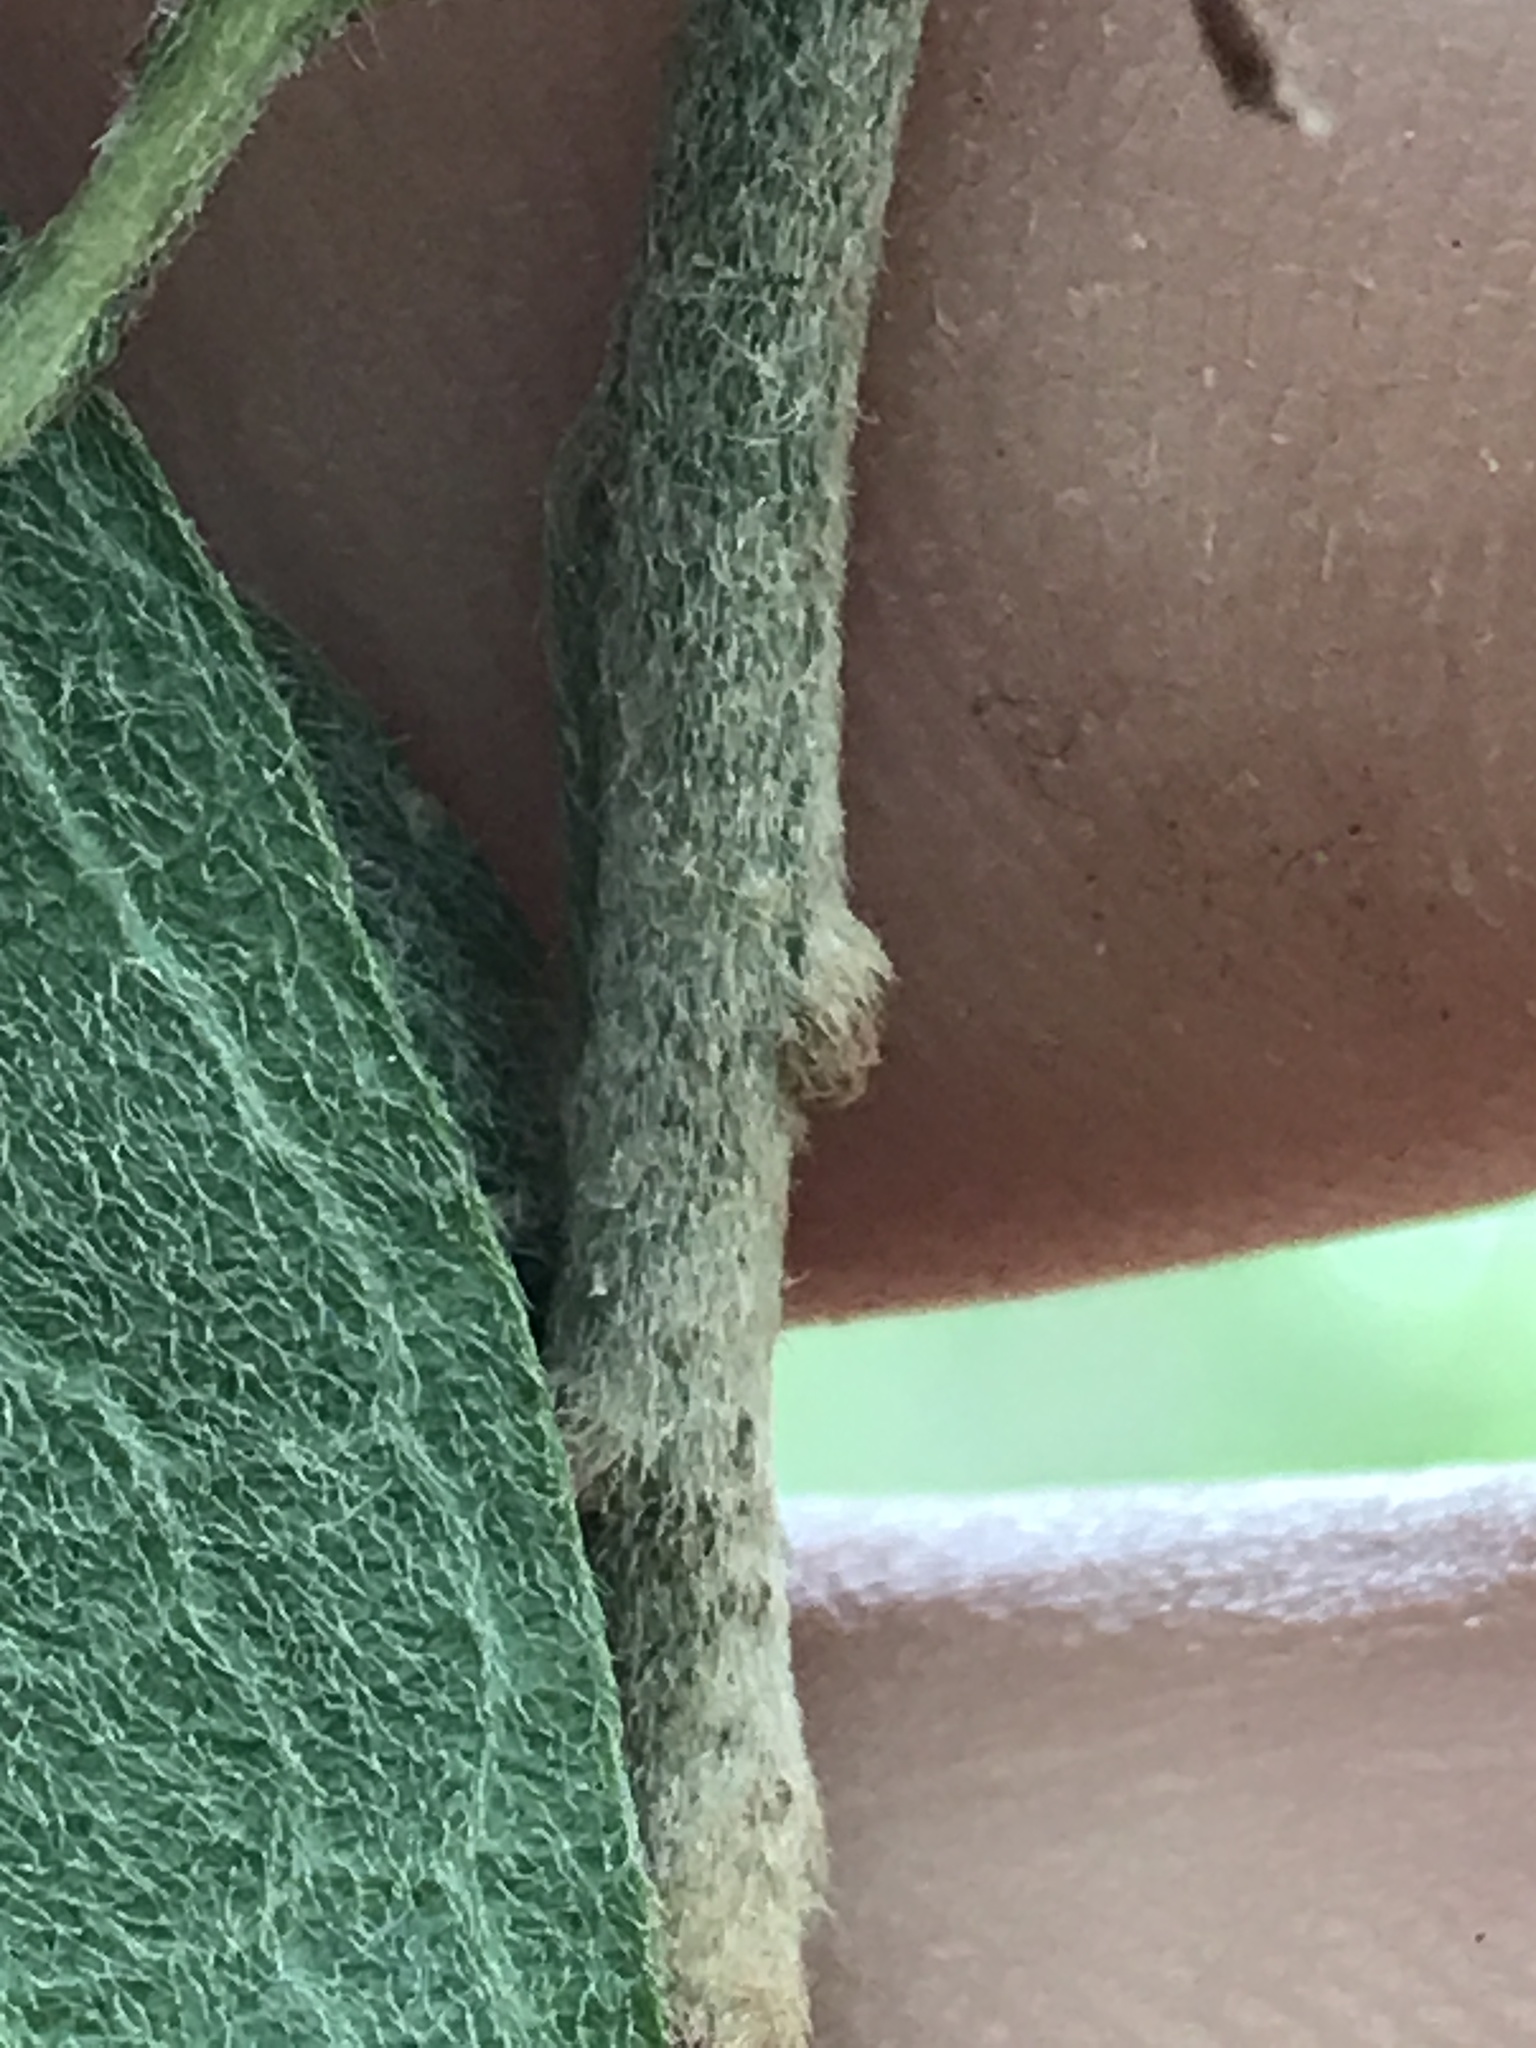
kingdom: Plantae
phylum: Tracheophyta
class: Magnoliopsida
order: Ericales
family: Sapotaceae
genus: Sideroxylon
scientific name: Sideroxylon lanuginosum
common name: Chittamwood
